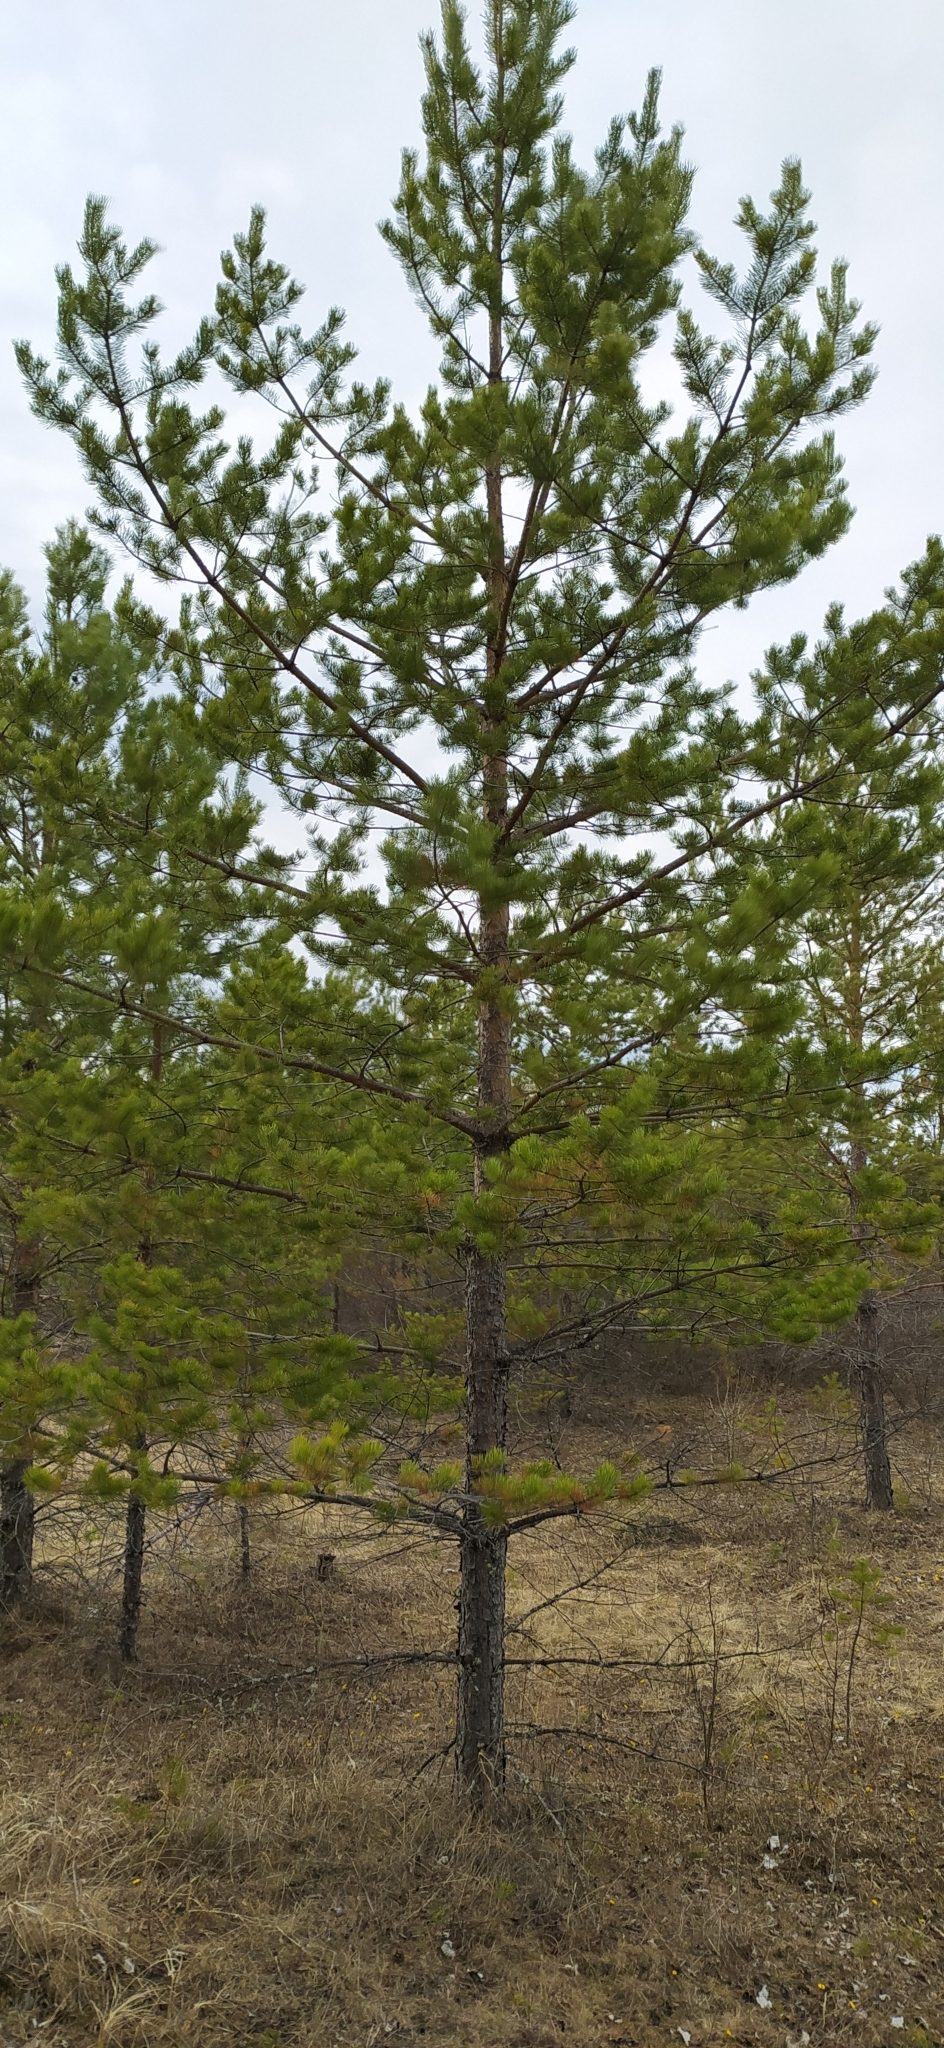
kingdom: Plantae
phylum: Tracheophyta
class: Pinopsida
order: Pinales
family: Pinaceae
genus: Pinus
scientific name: Pinus sylvestris
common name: Scots pine
